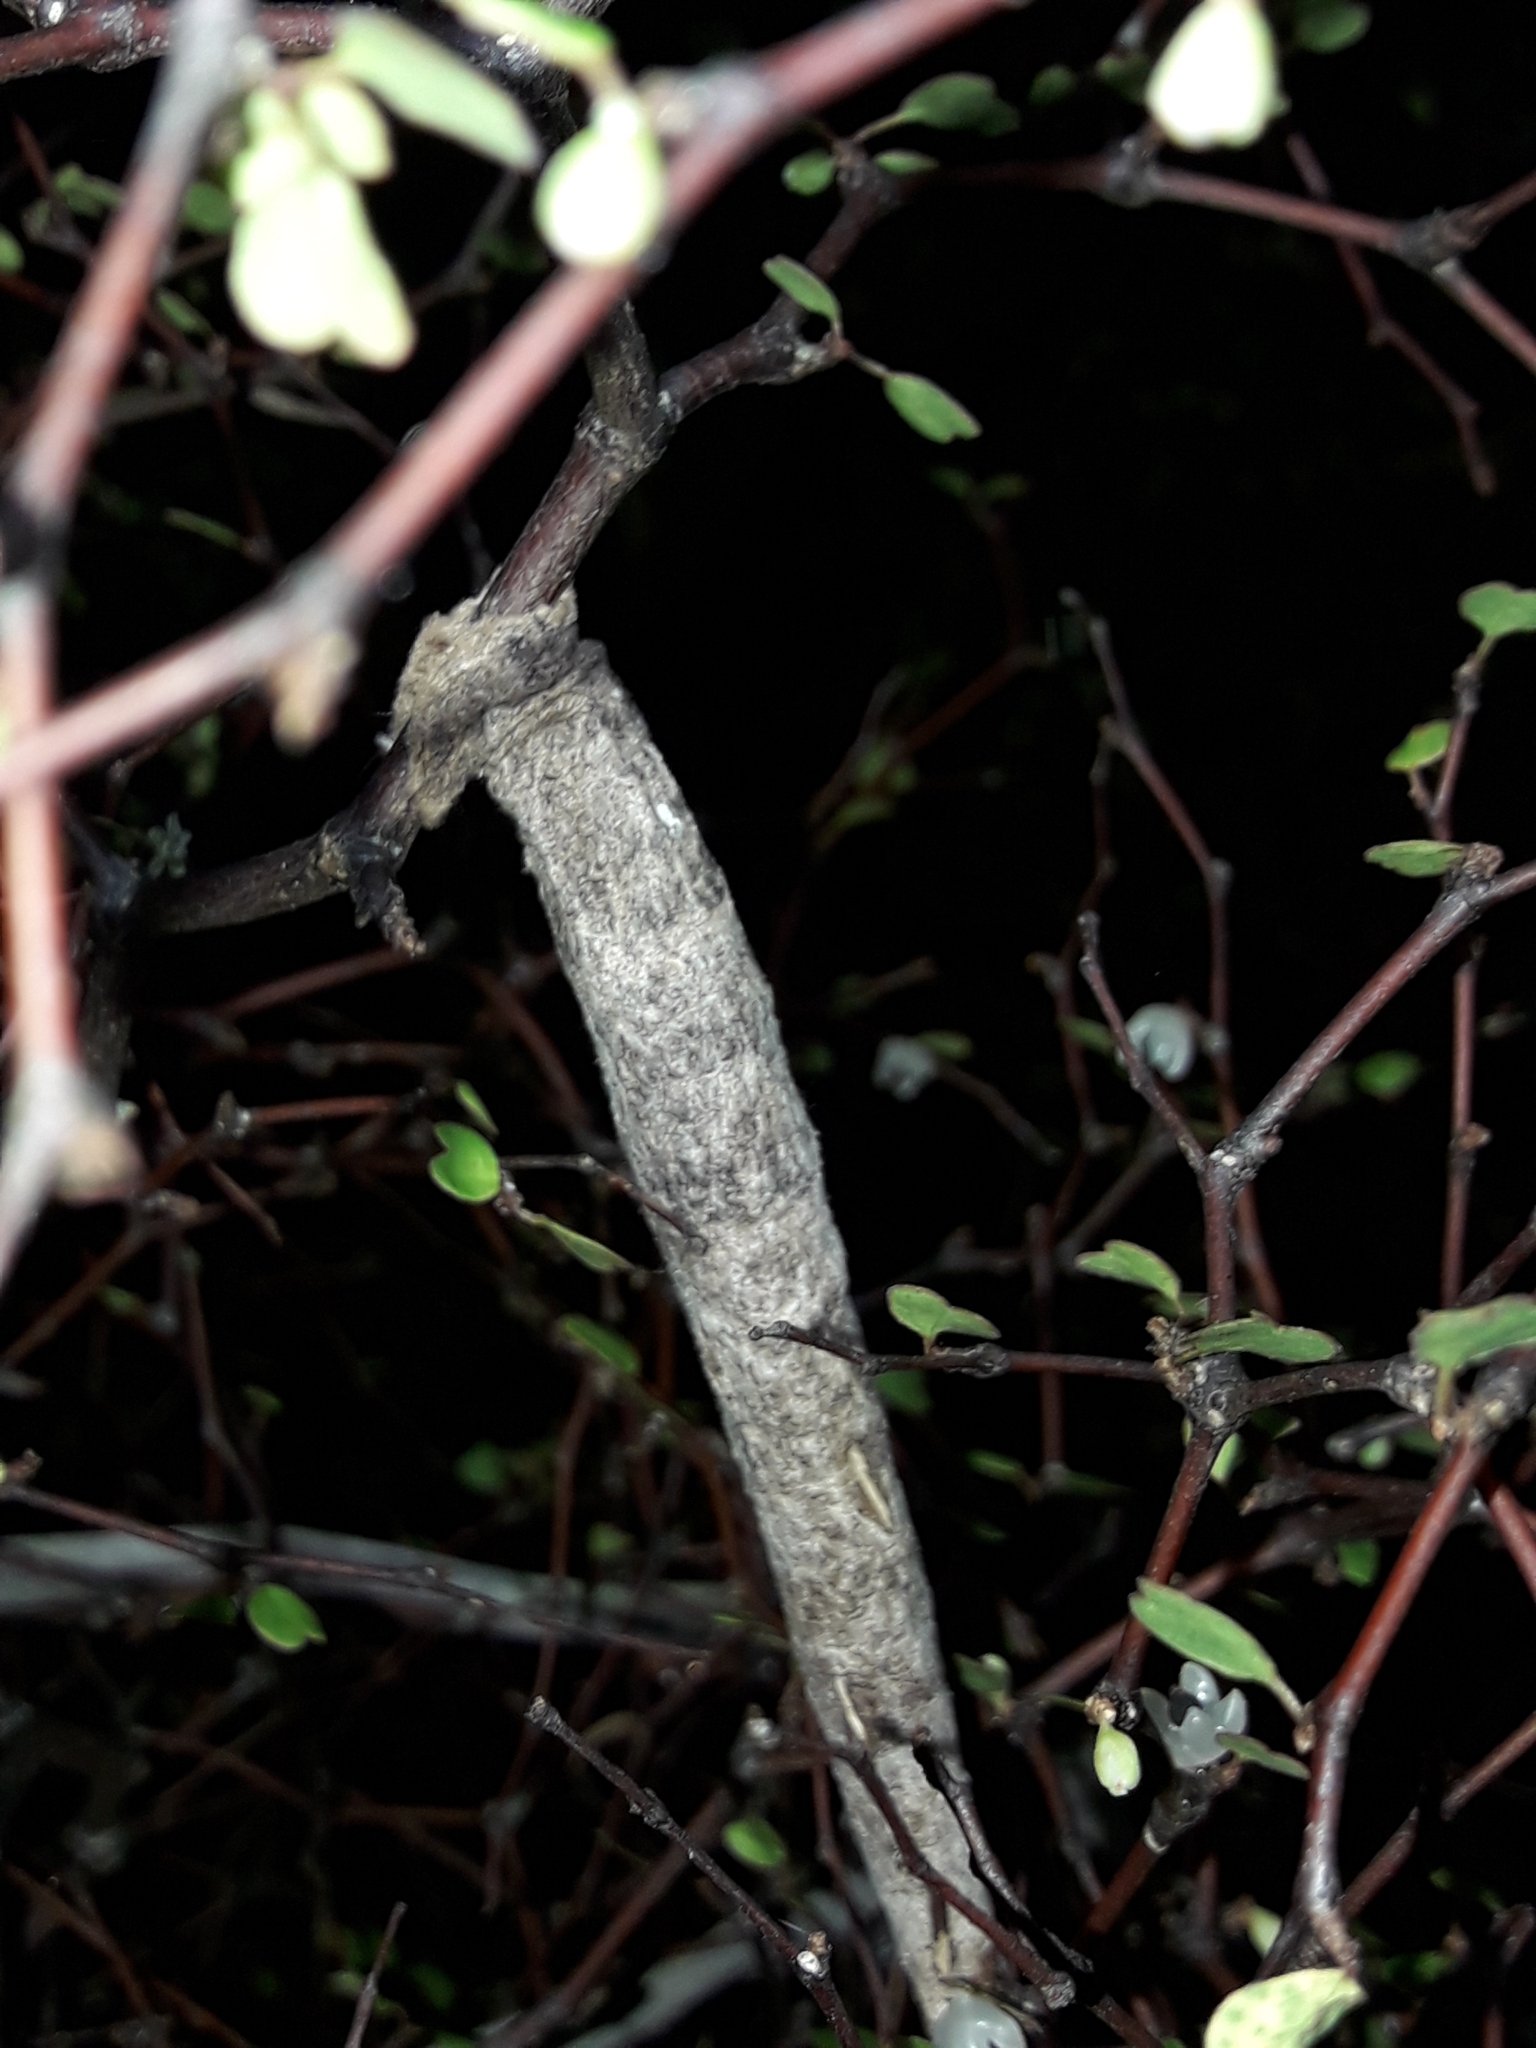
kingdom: Animalia
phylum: Arthropoda
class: Insecta
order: Lepidoptera
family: Psychidae
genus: Liothula
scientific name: Liothula omnivora
